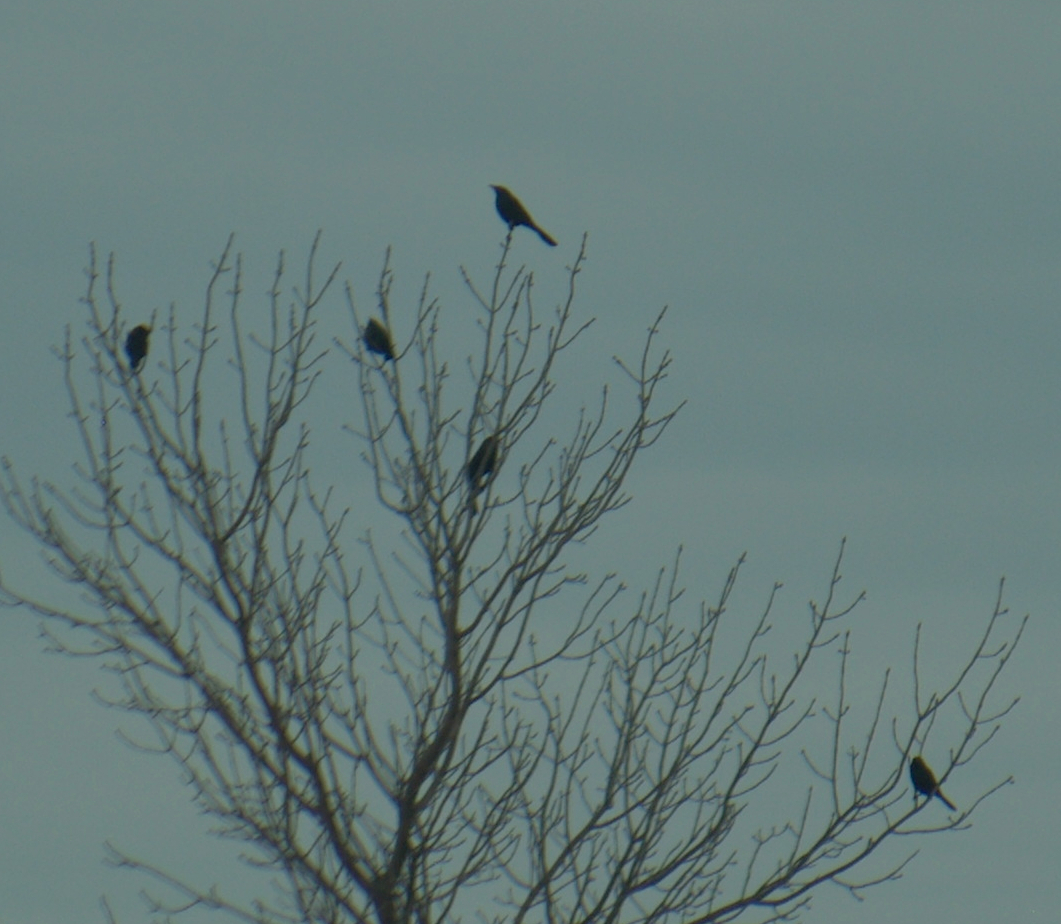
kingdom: Animalia
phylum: Chordata
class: Aves
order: Passeriformes
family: Icteridae
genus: Quiscalus
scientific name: Quiscalus quiscula
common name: Common grackle
